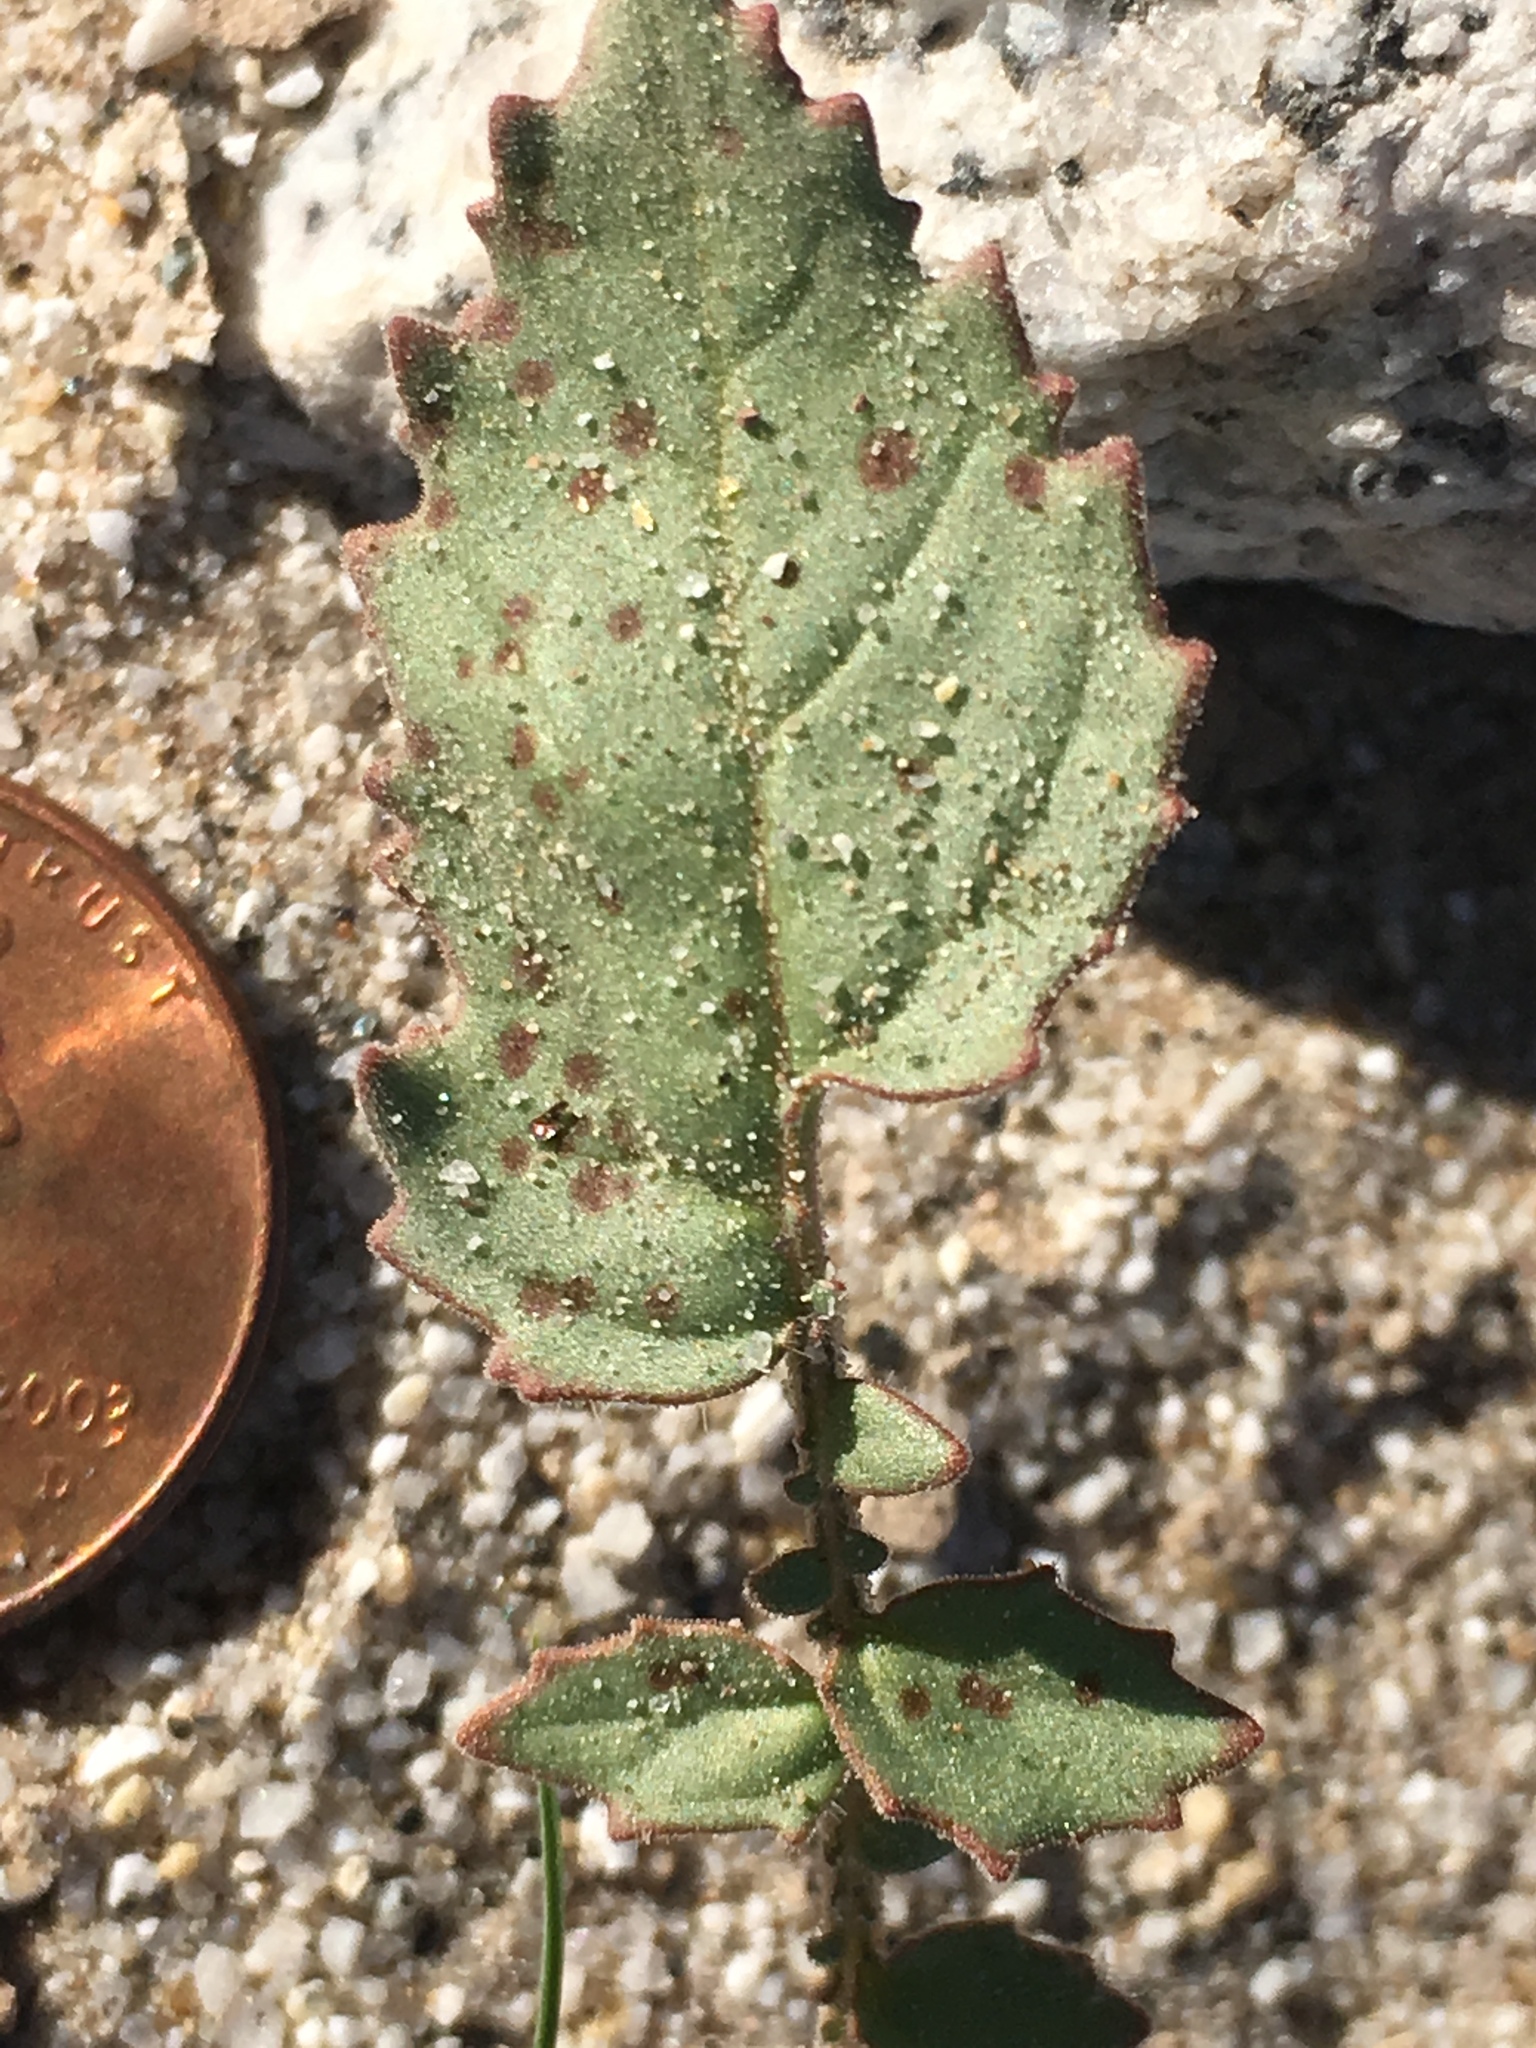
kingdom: Plantae
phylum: Tracheophyta
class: Magnoliopsida
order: Myrtales
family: Onagraceae
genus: Chylismia
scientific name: Chylismia claviformis
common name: Browneyes
